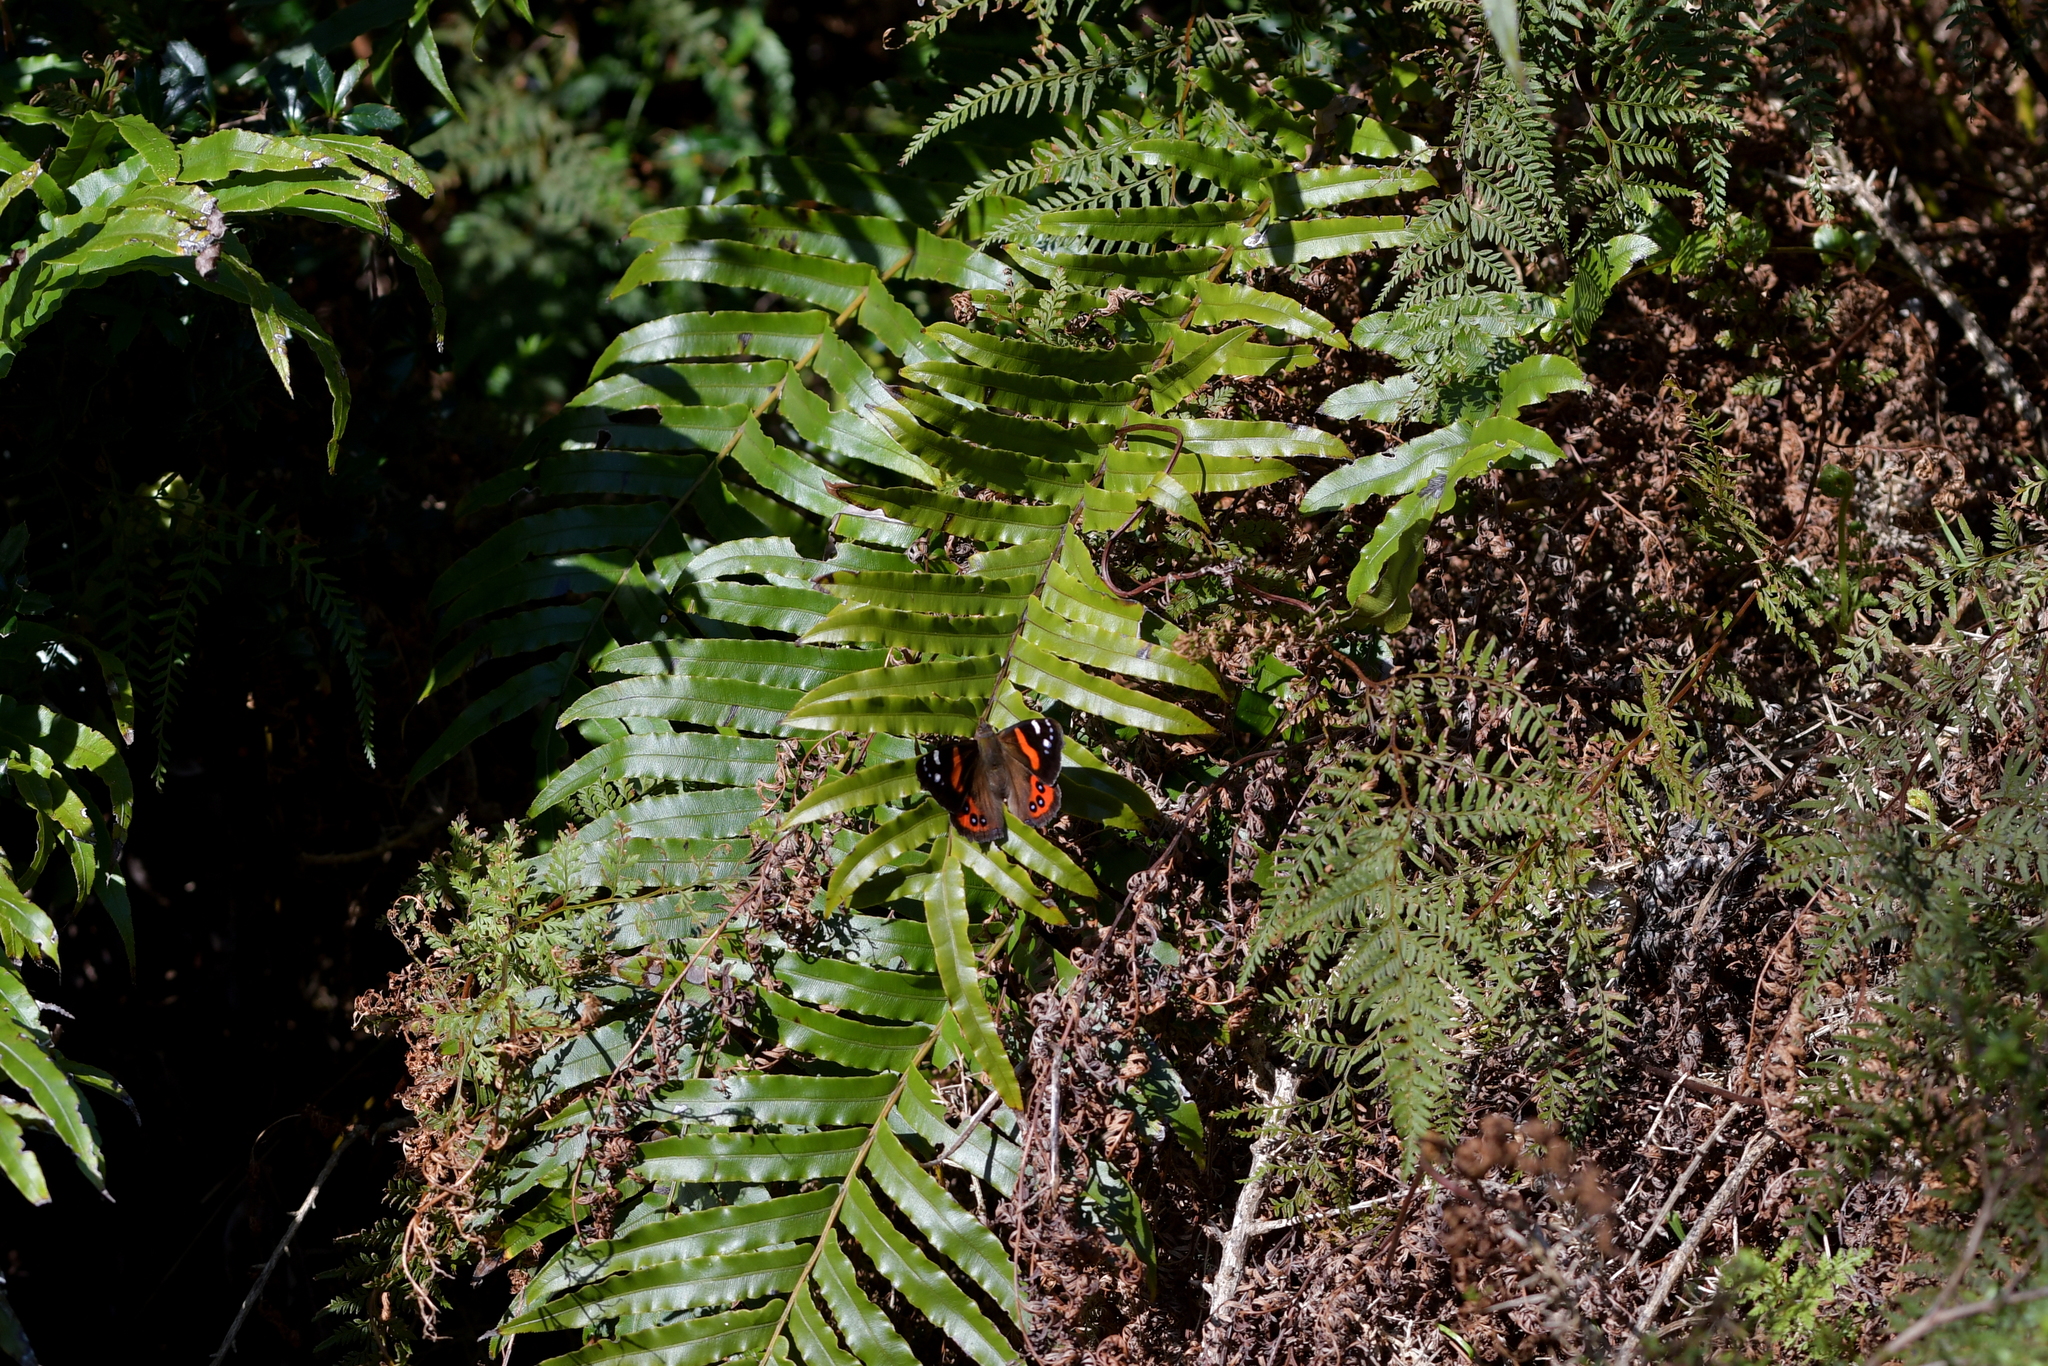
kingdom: Animalia
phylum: Arthropoda
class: Insecta
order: Lepidoptera
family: Nymphalidae
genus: Vanessa
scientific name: Vanessa gonerilla
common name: New zealand red admiral
